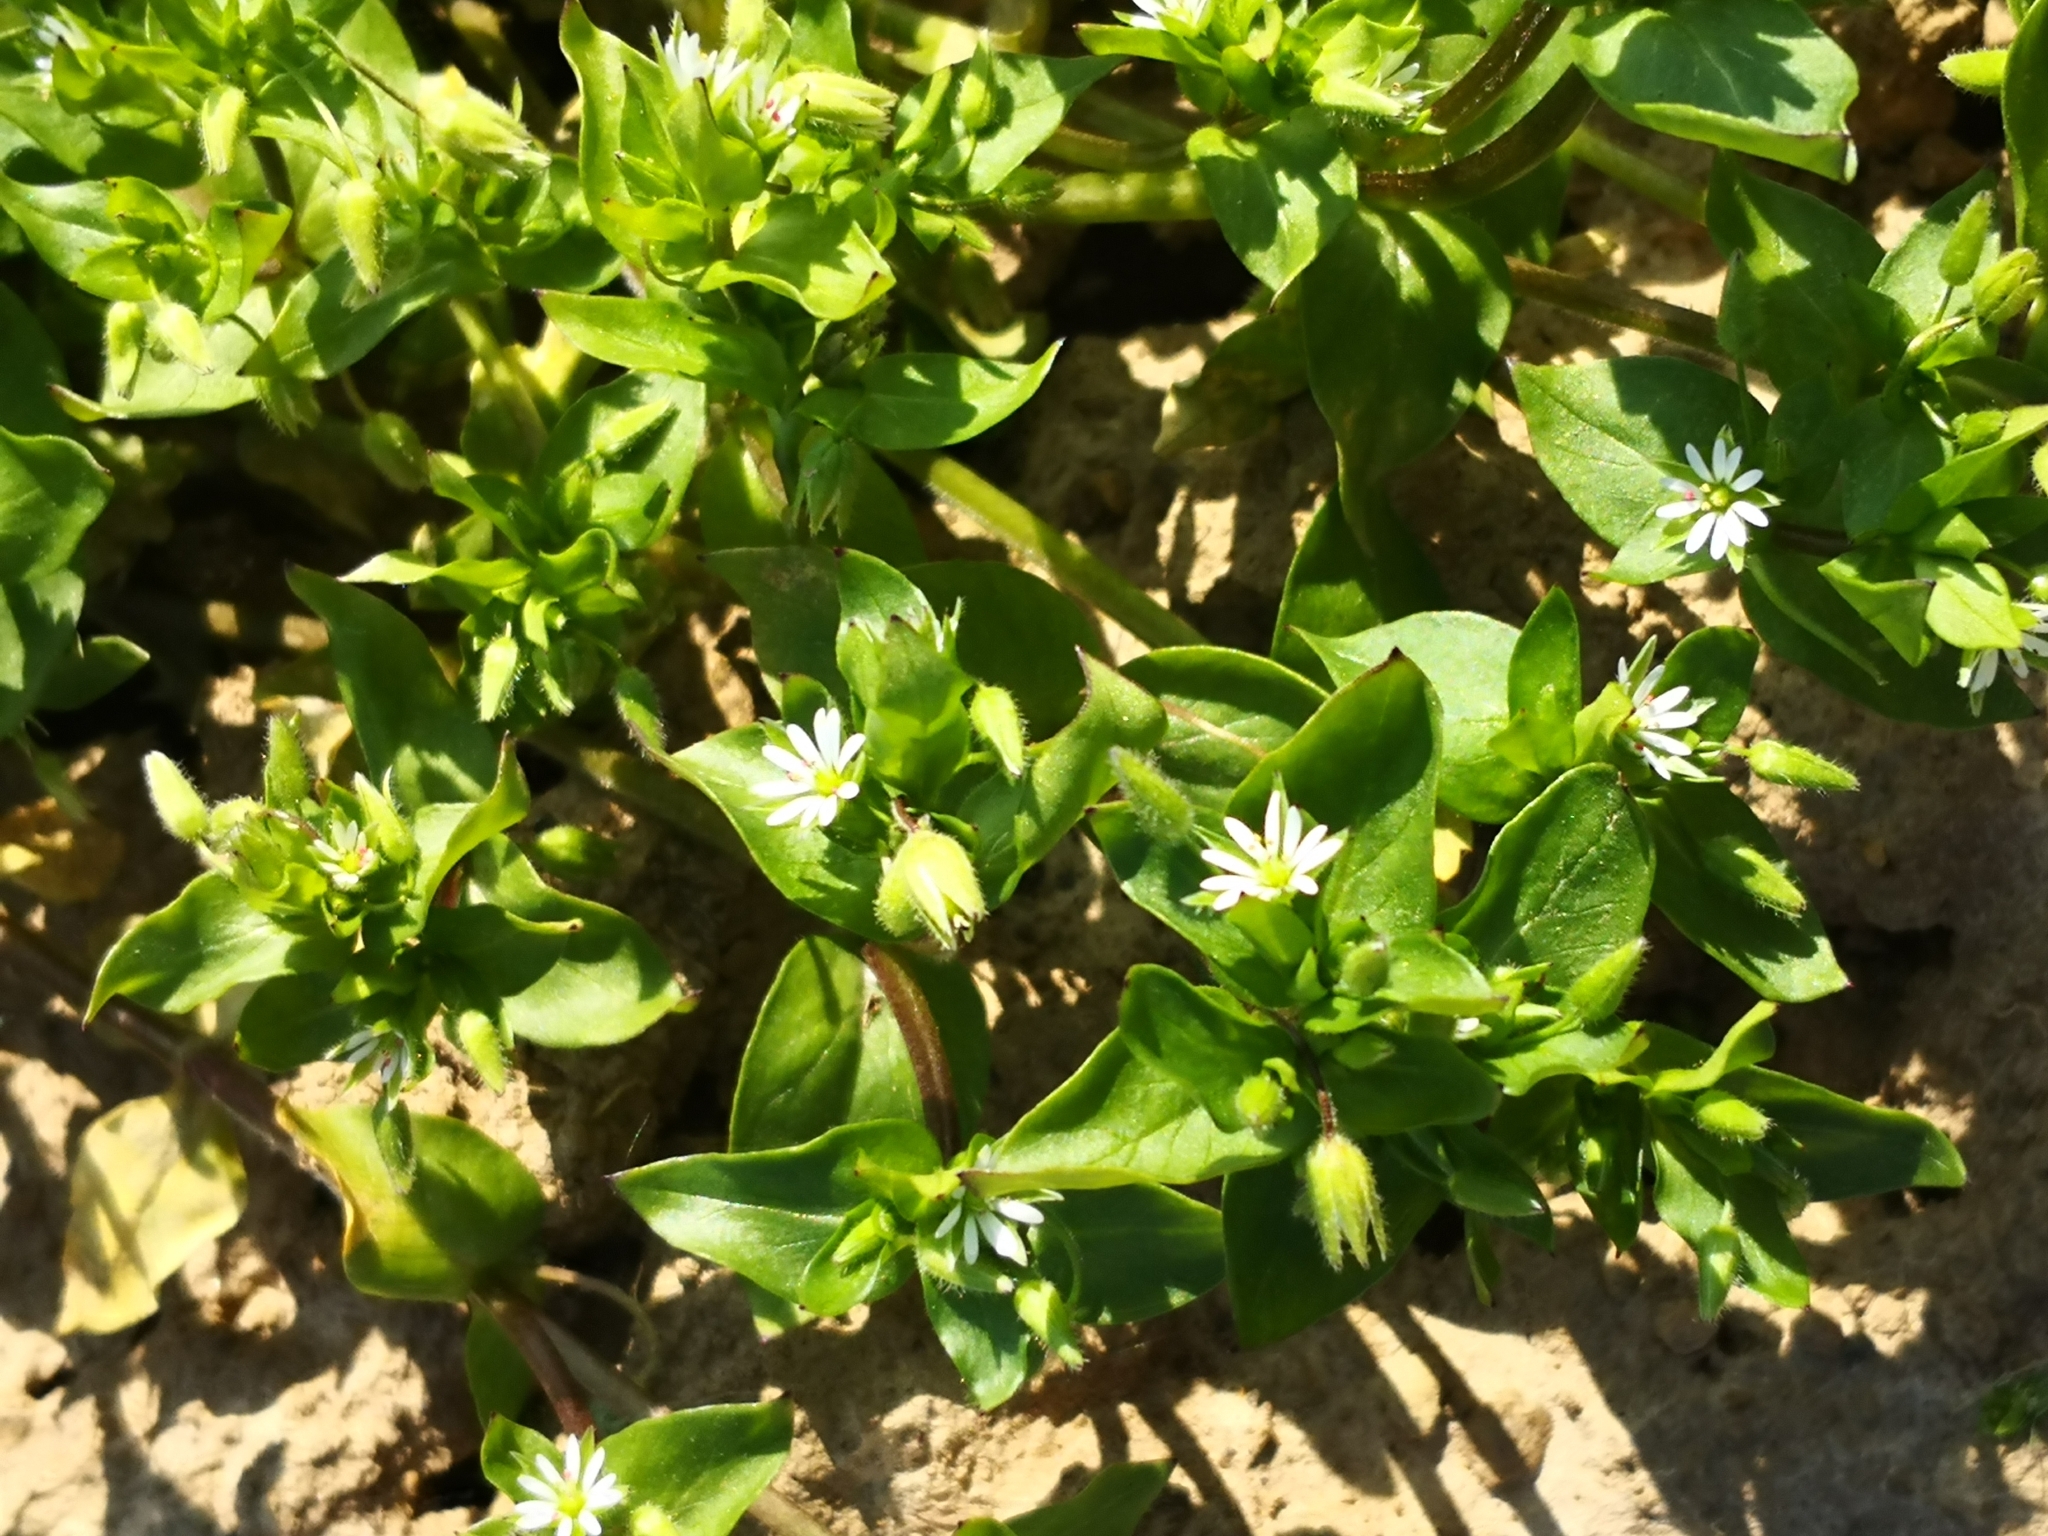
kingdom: Plantae
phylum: Tracheophyta
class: Magnoliopsida
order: Caryophyllales
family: Caryophyllaceae
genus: Stellaria
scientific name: Stellaria media
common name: Common chickweed
